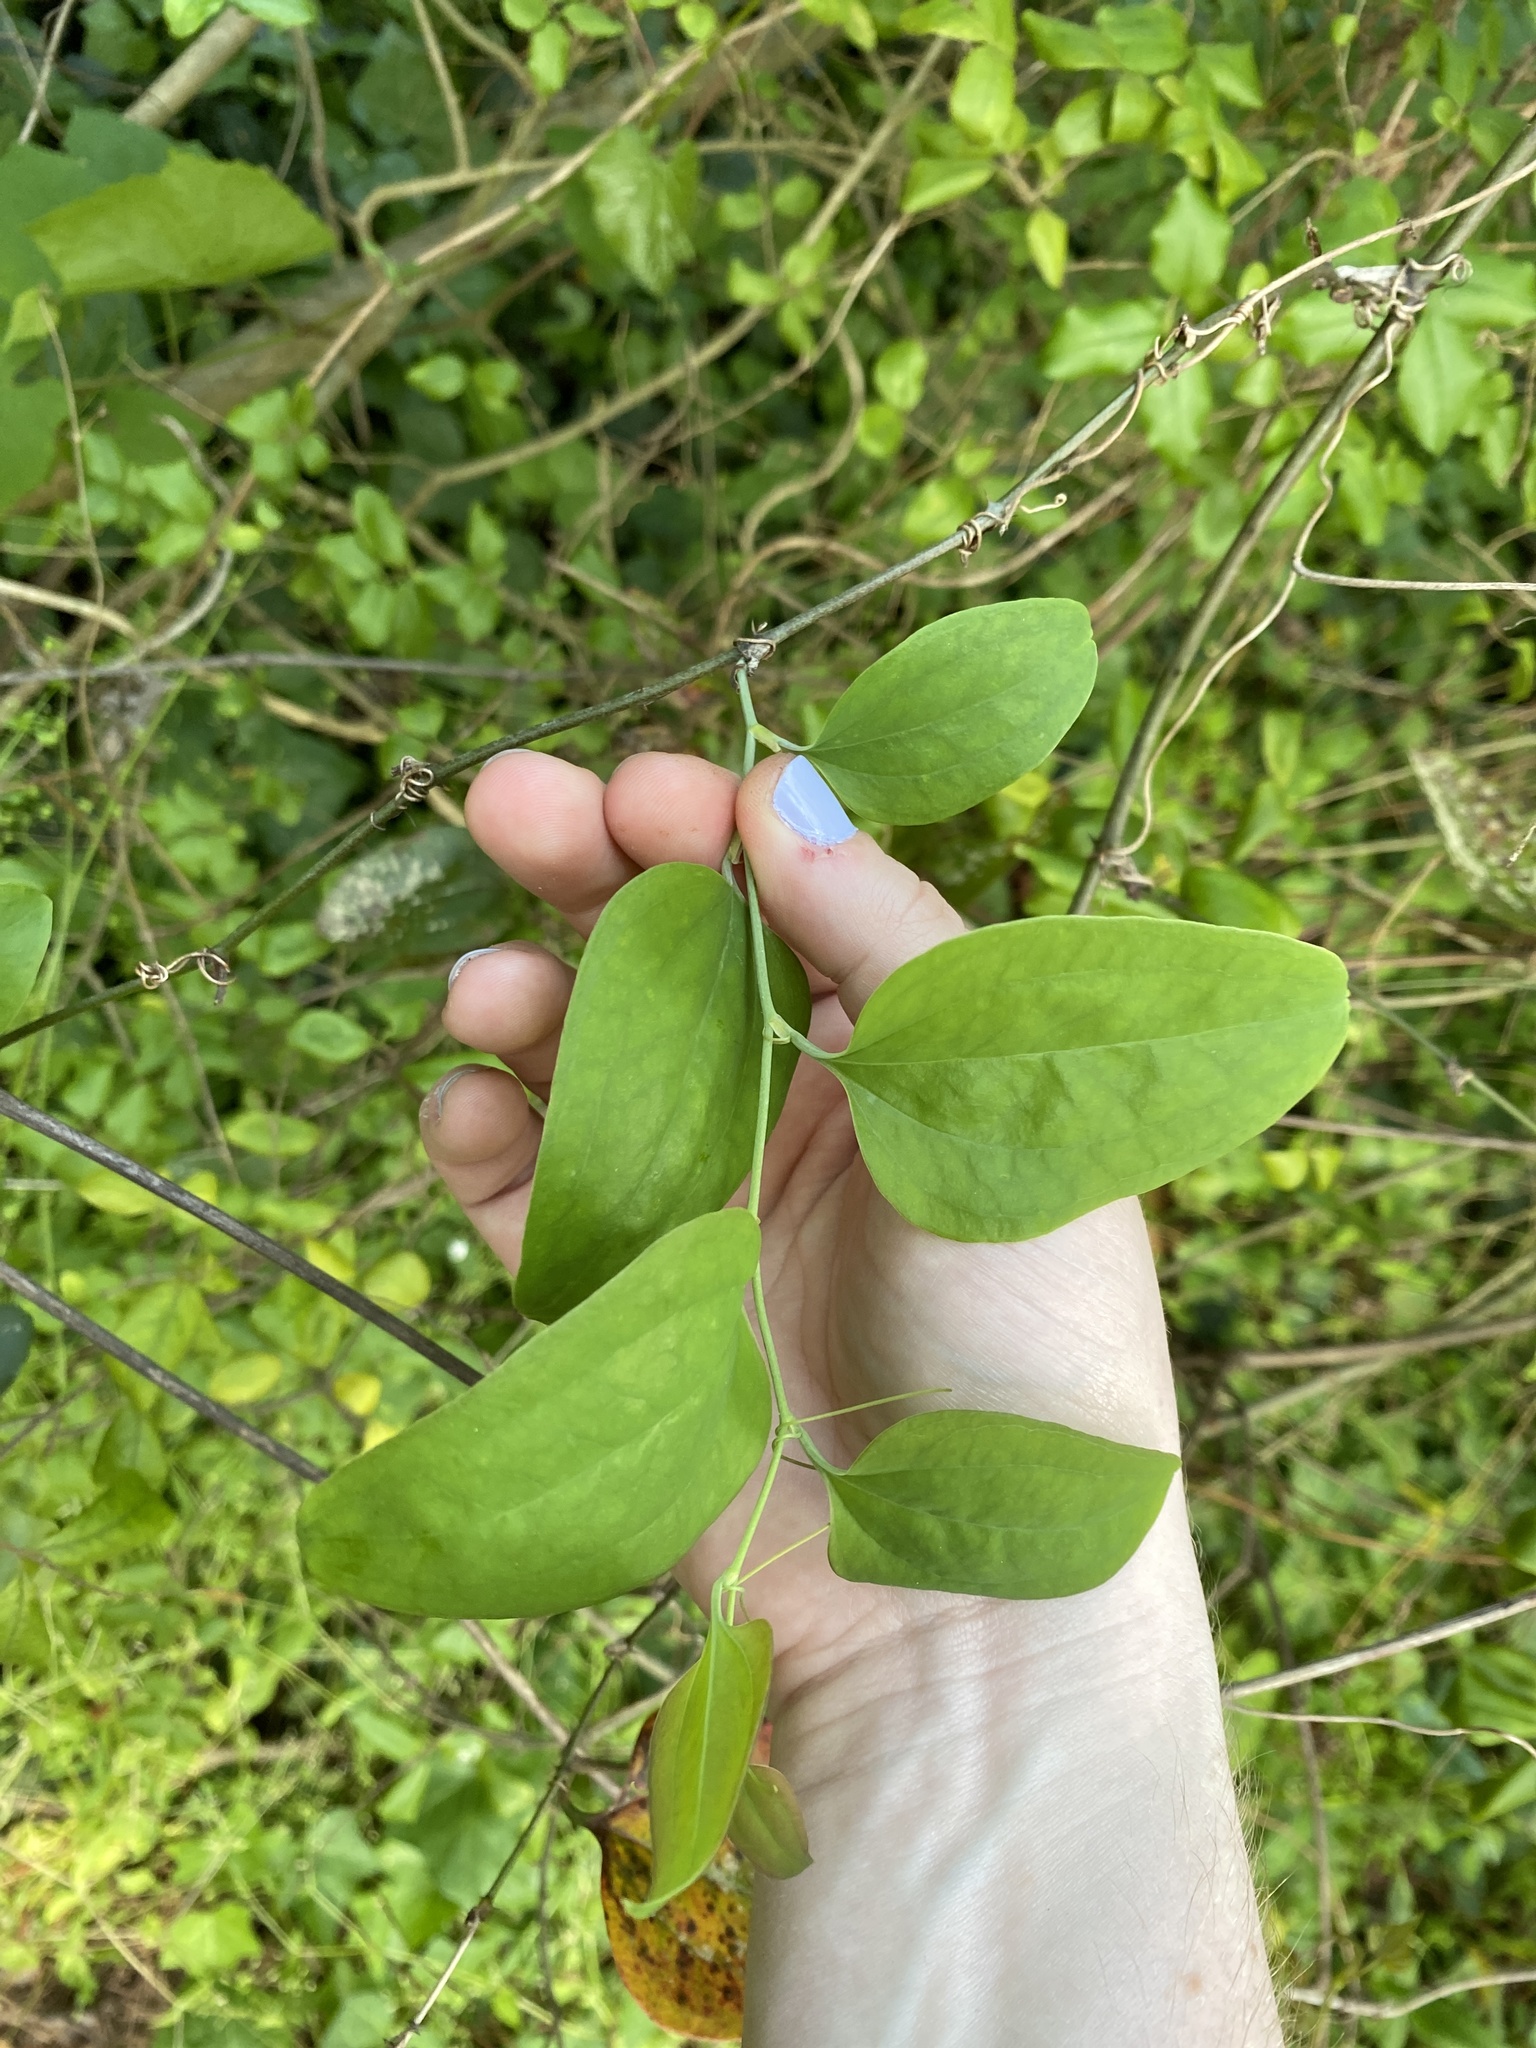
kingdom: Plantae
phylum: Tracheophyta
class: Liliopsida
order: Liliales
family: Smilacaceae
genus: Smilax
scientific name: Smilax glauca
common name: Cat greenbrier
